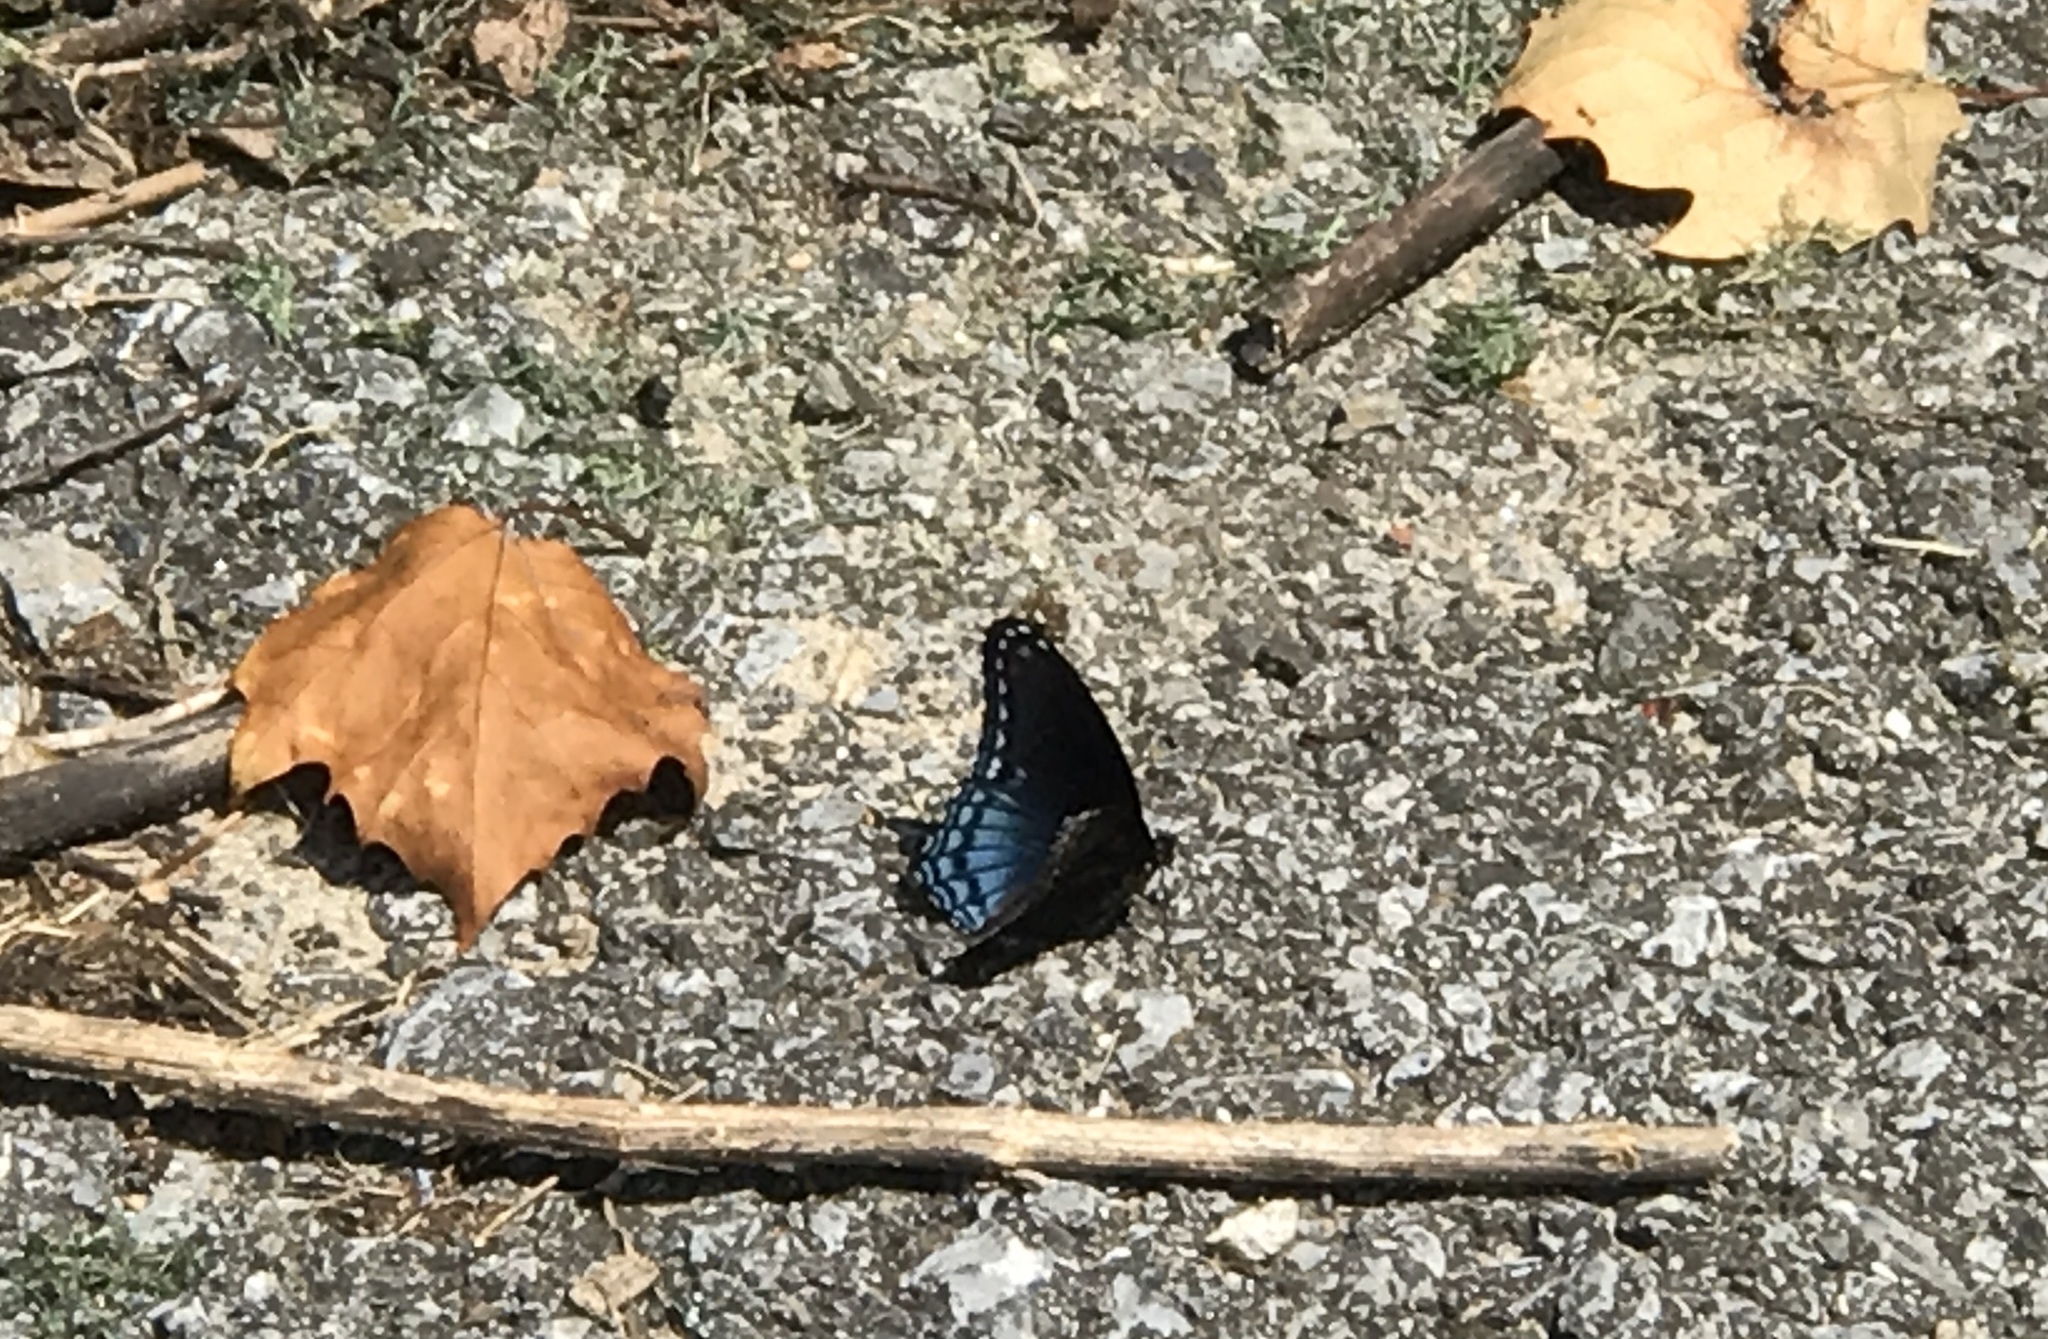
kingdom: Animalia
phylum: Arthropoda
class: Insecta
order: Lepidoptera
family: Nymphalidae
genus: Limenitis
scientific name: Limenitis astyanax
